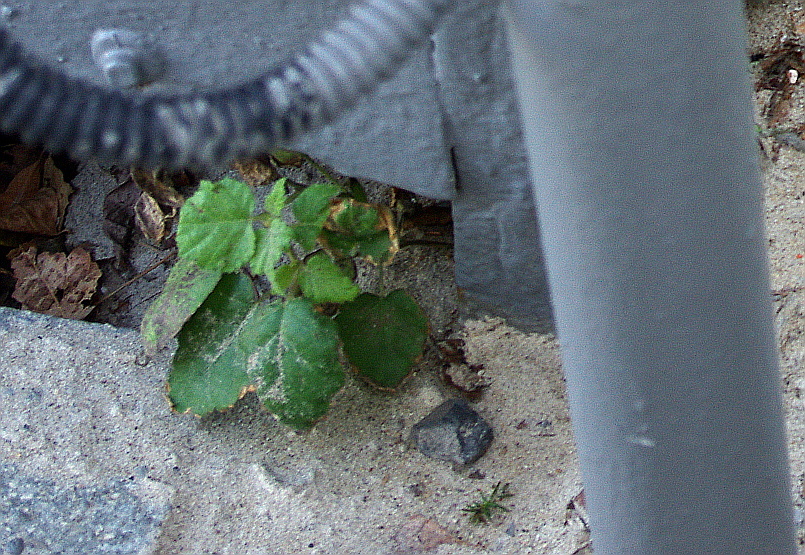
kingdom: Plantae
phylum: Tracheophyta
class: Magnoliopsida
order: Fagales
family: Betulaceae
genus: Betula
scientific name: Betula
